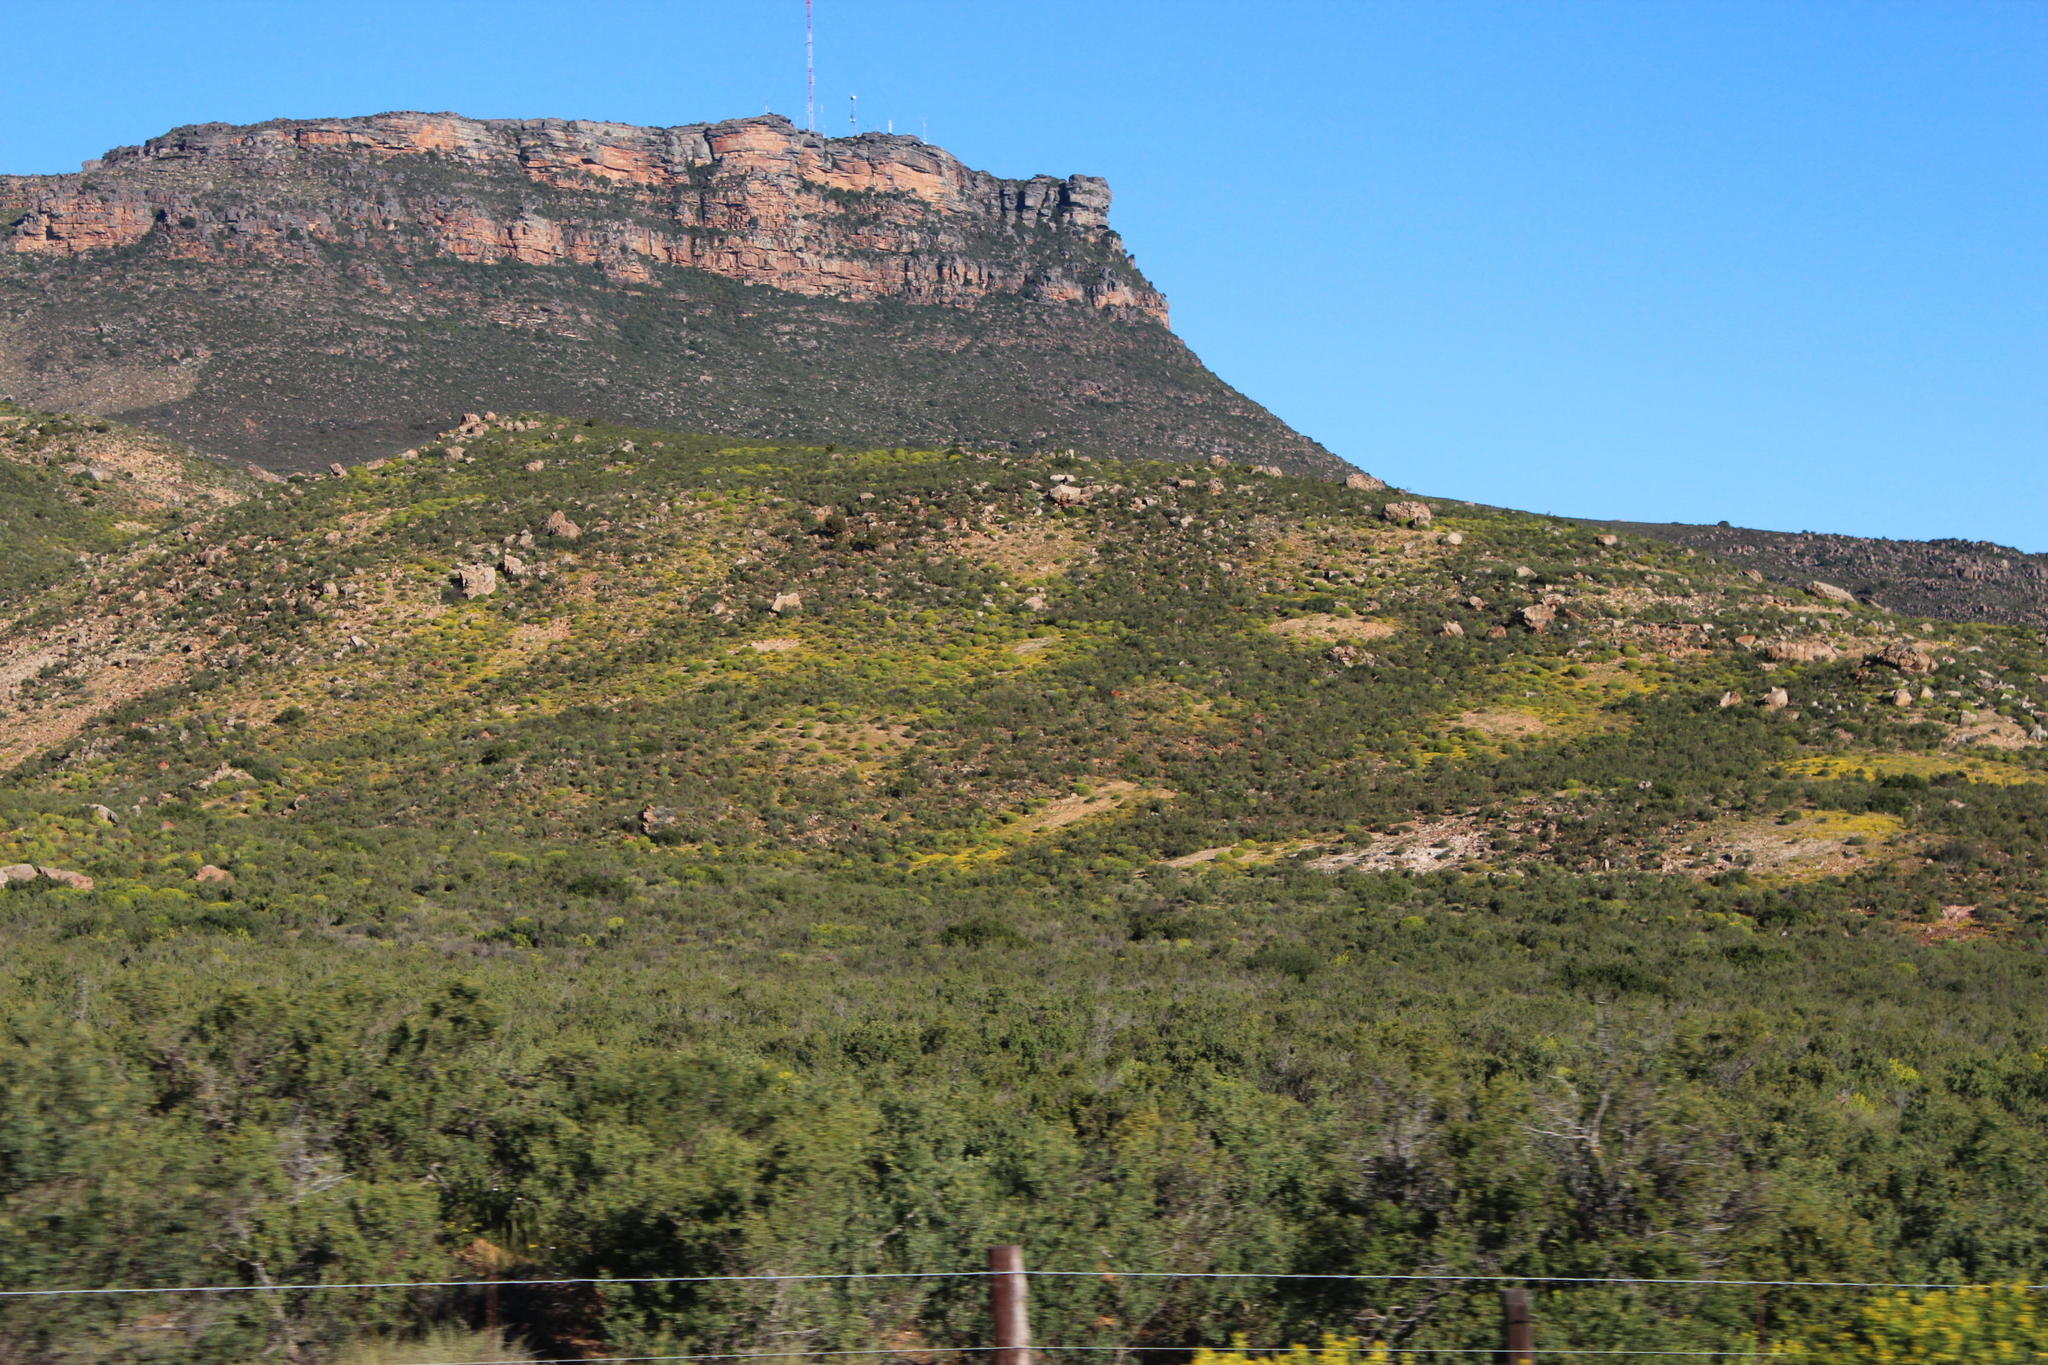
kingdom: Animalia
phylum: Arthropoda
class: Insecta
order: Blattodea
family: Hodotermitidae
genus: Microhodotermes
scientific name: Microhodotermes viator
